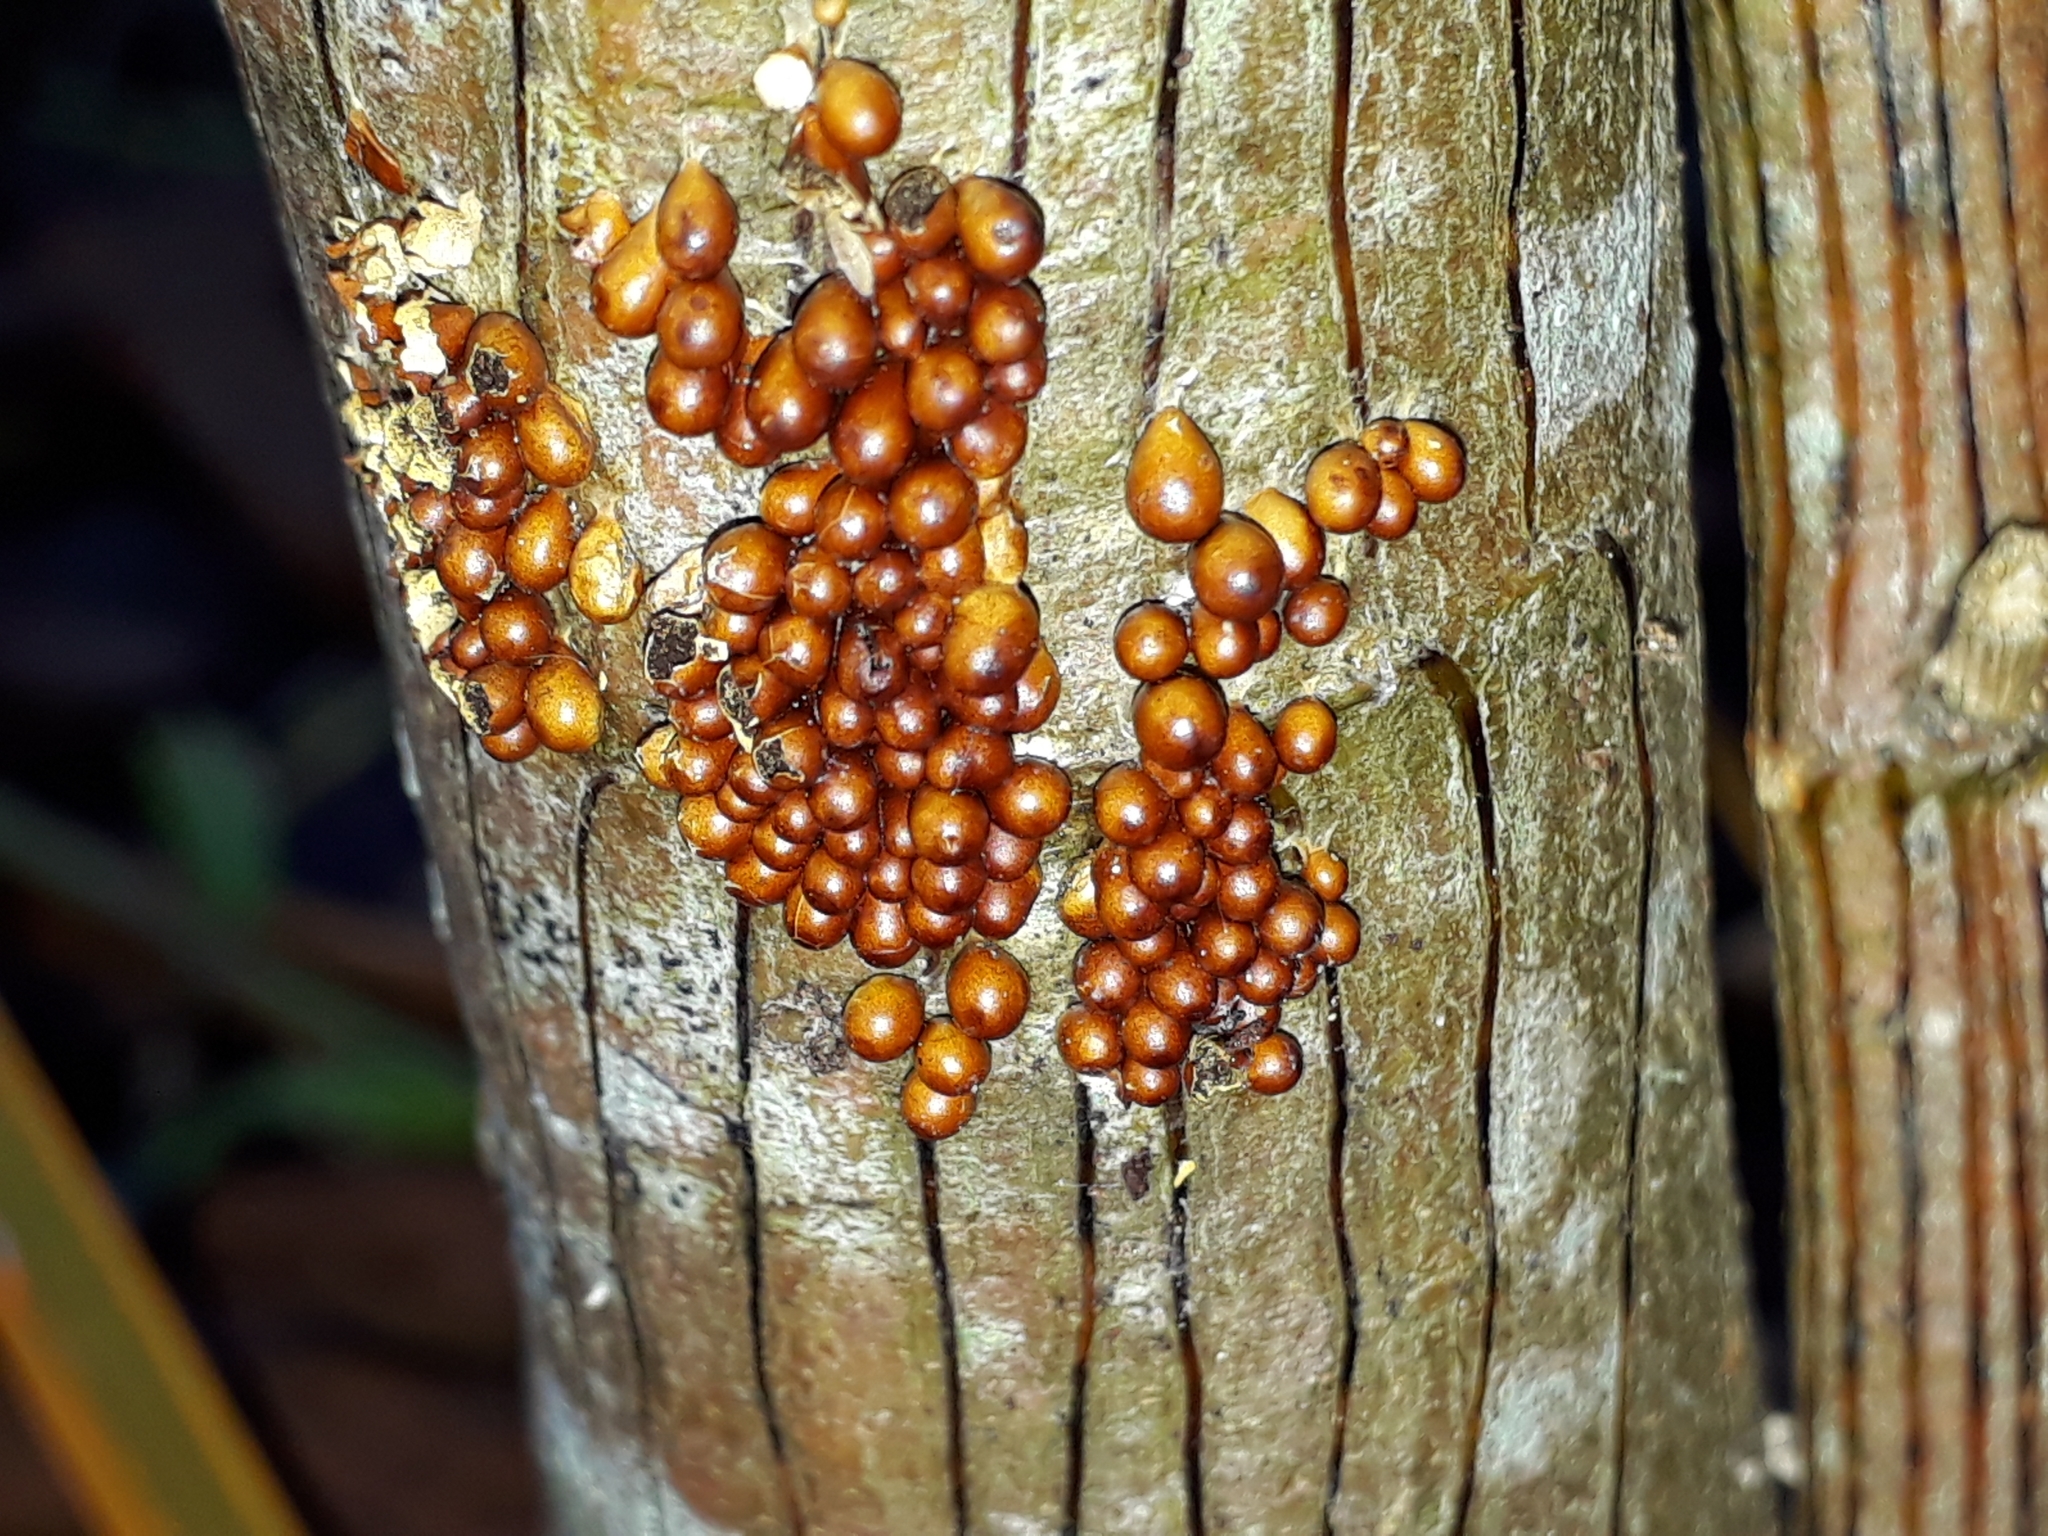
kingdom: Protozoa
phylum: Mycetozoa
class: Myxomycetes
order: Physarales
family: Physaraceae
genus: Leocarpus
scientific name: Leocarpus fragilis
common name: Insect-egg slime
